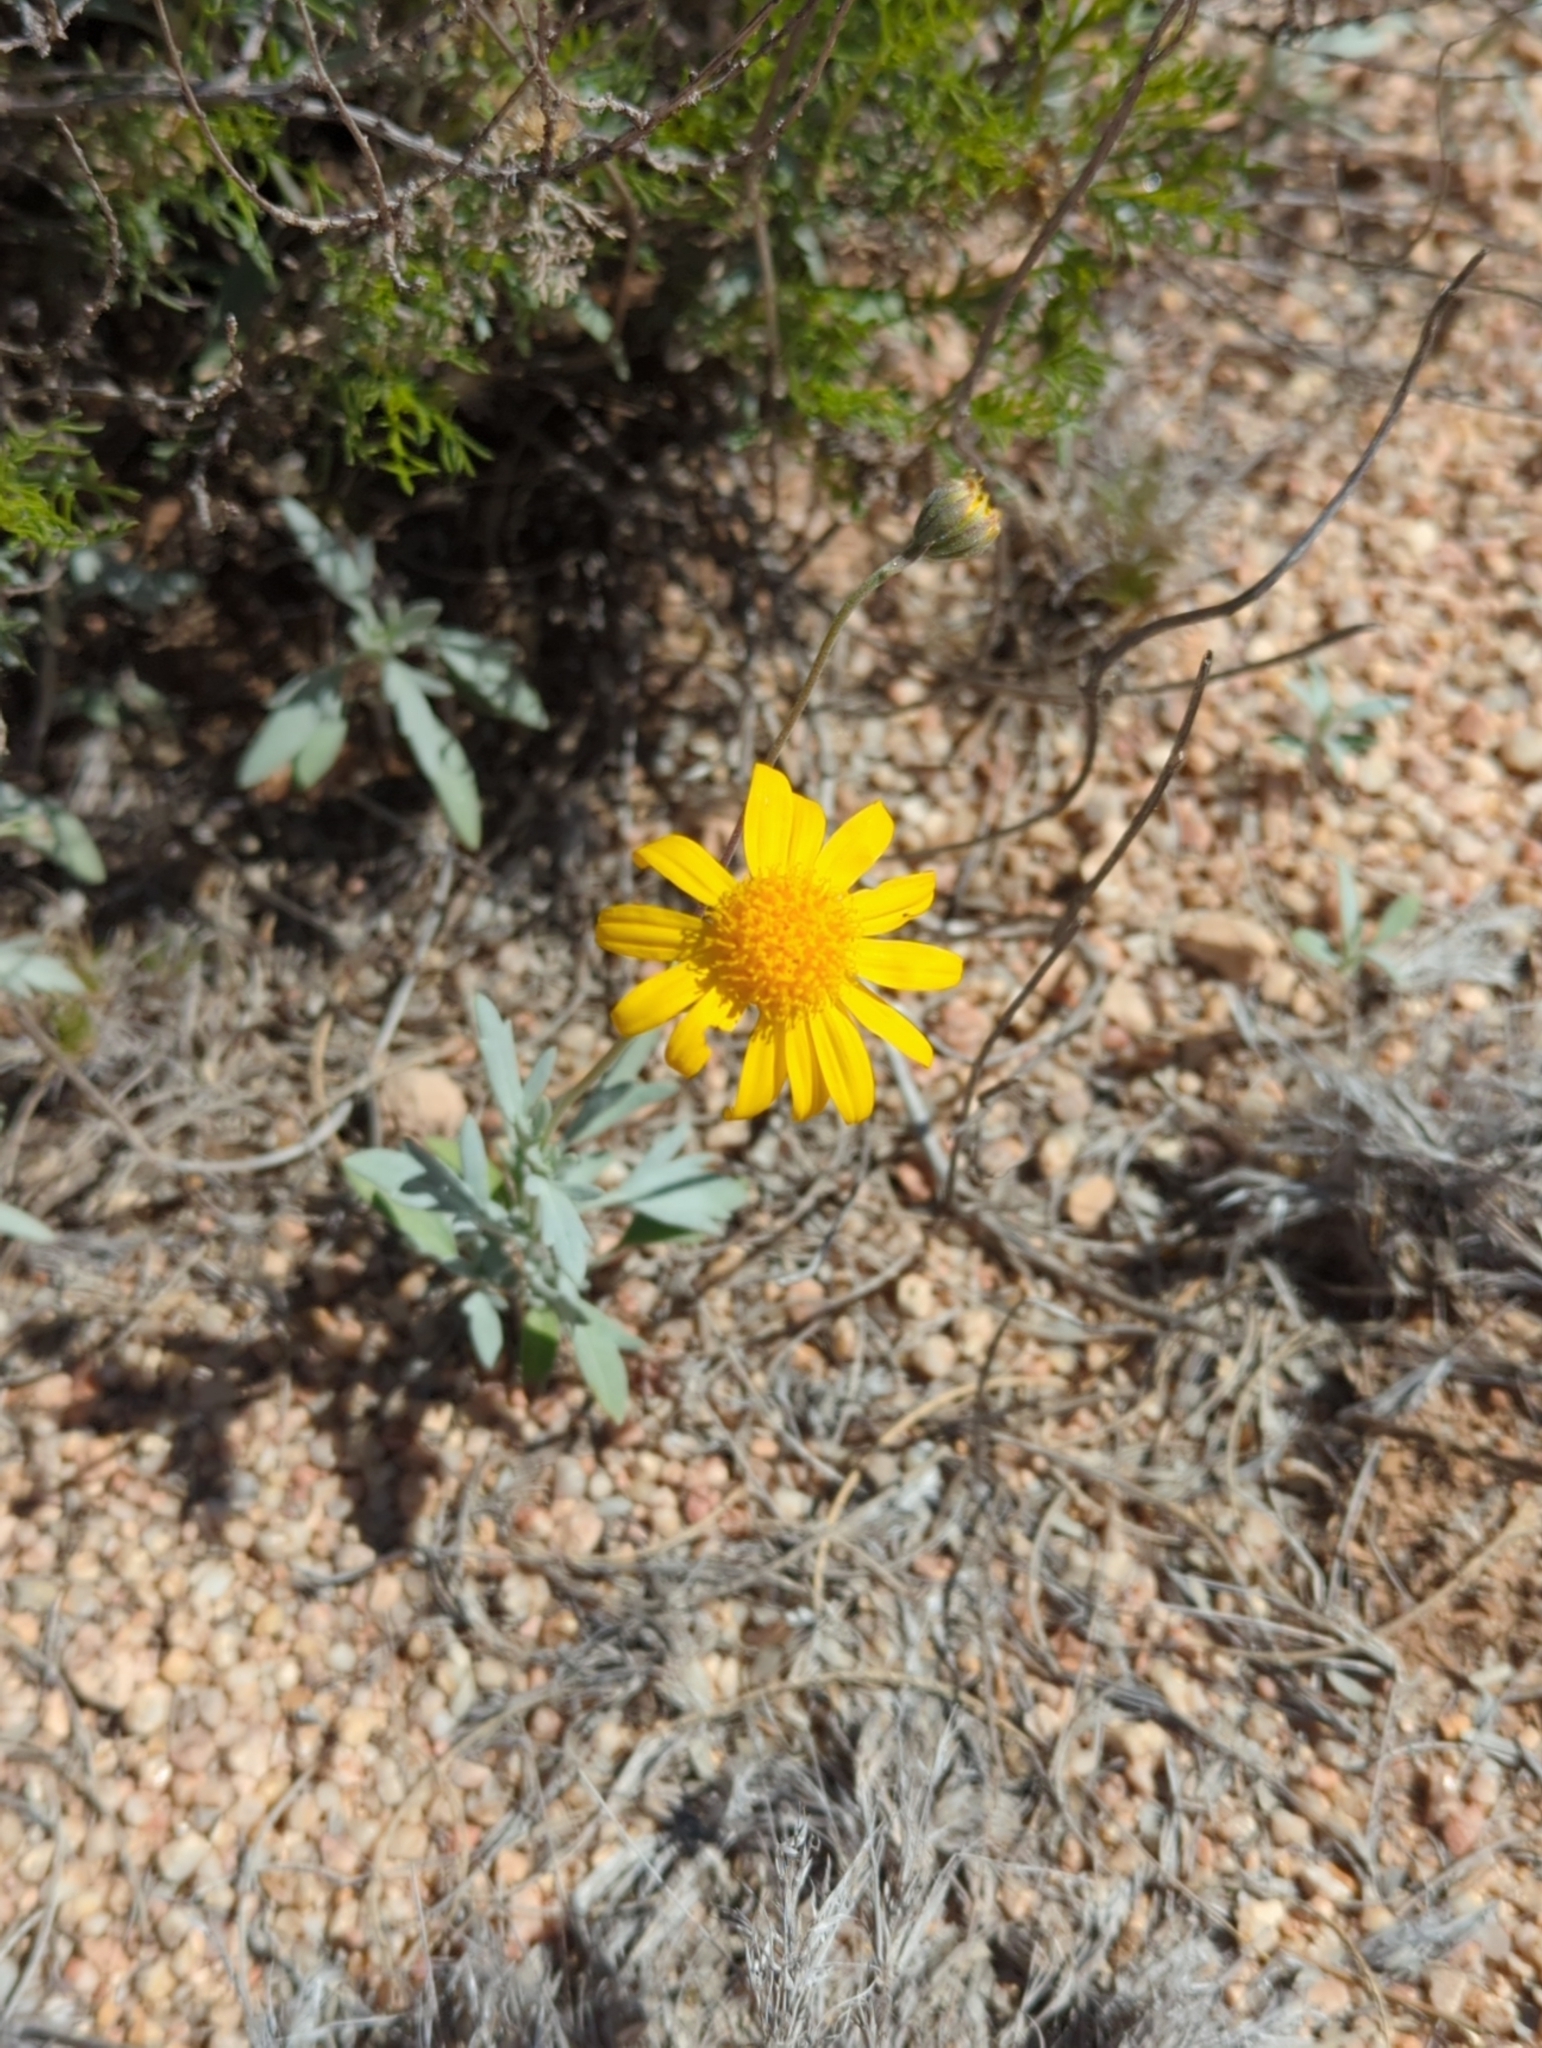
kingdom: Plantae
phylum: Tracheophyta
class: Magnoliopsida
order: Asterales
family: Asteraceae
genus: Picradeniopsis
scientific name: Picradeniopsis absinthifolia
